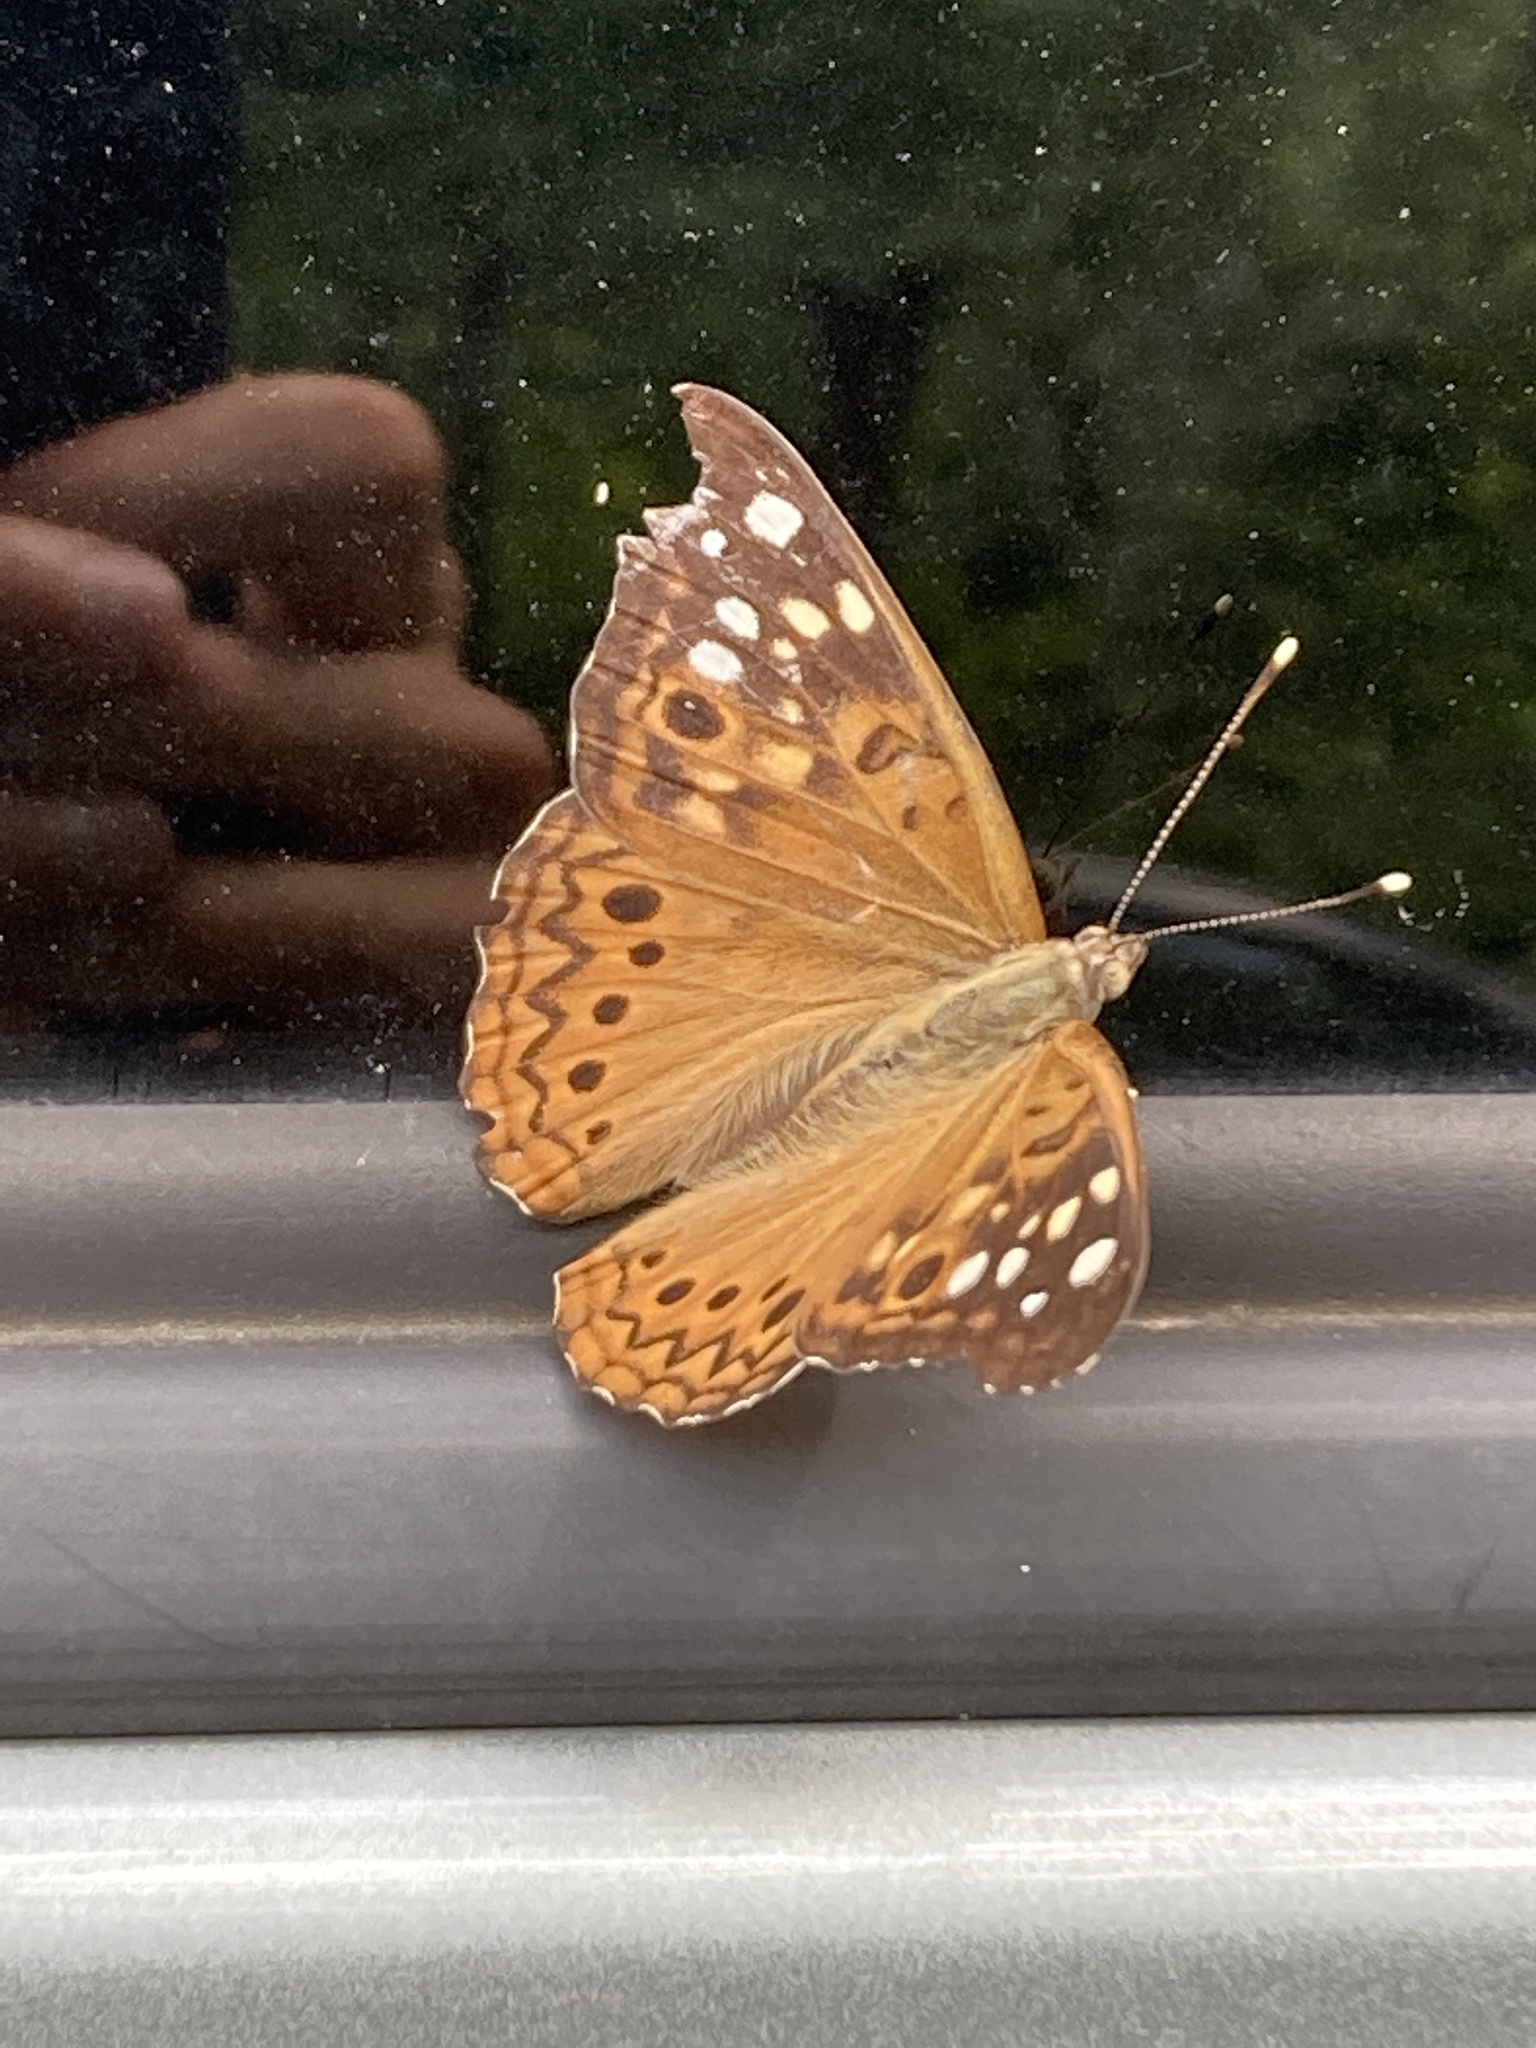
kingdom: Animalia
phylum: Arthropoda
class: Insecta
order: Lepidoptera
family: Nymphalidae
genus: Asterocampa
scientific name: Asterocampa celtis
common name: Hackberry emperor
